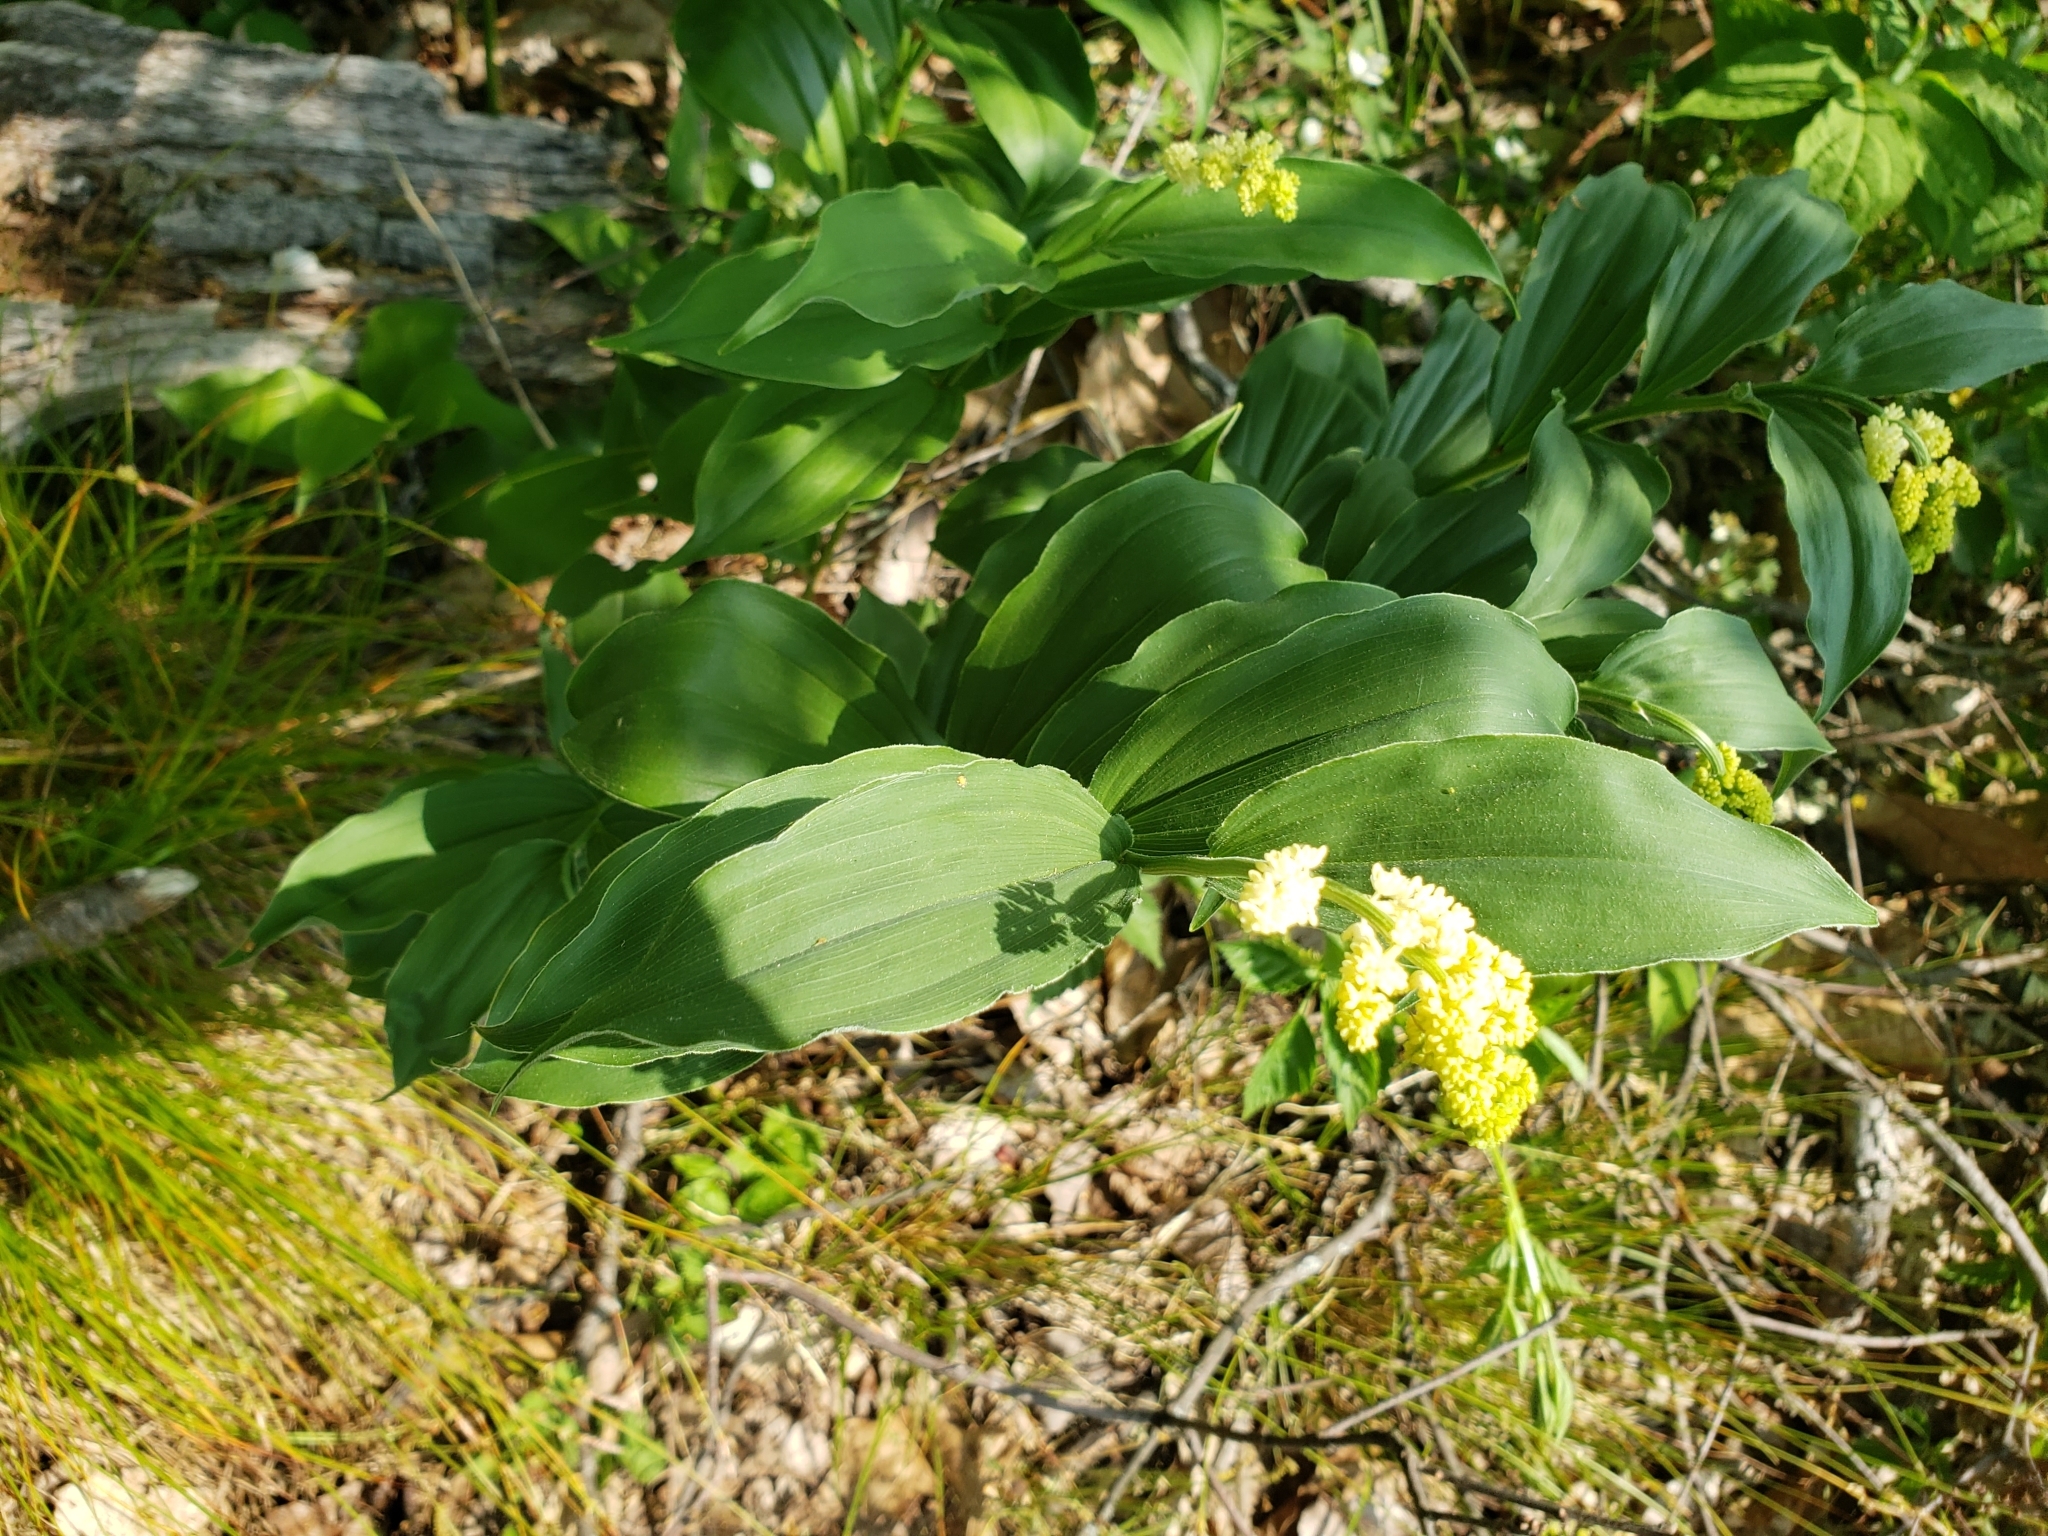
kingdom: Plantae
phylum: Tracheophyta
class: Liliopsida
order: Asparagales
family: Asparagaceae
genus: Maianthemum
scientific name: Maianthemum racemosum
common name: False spikenard
